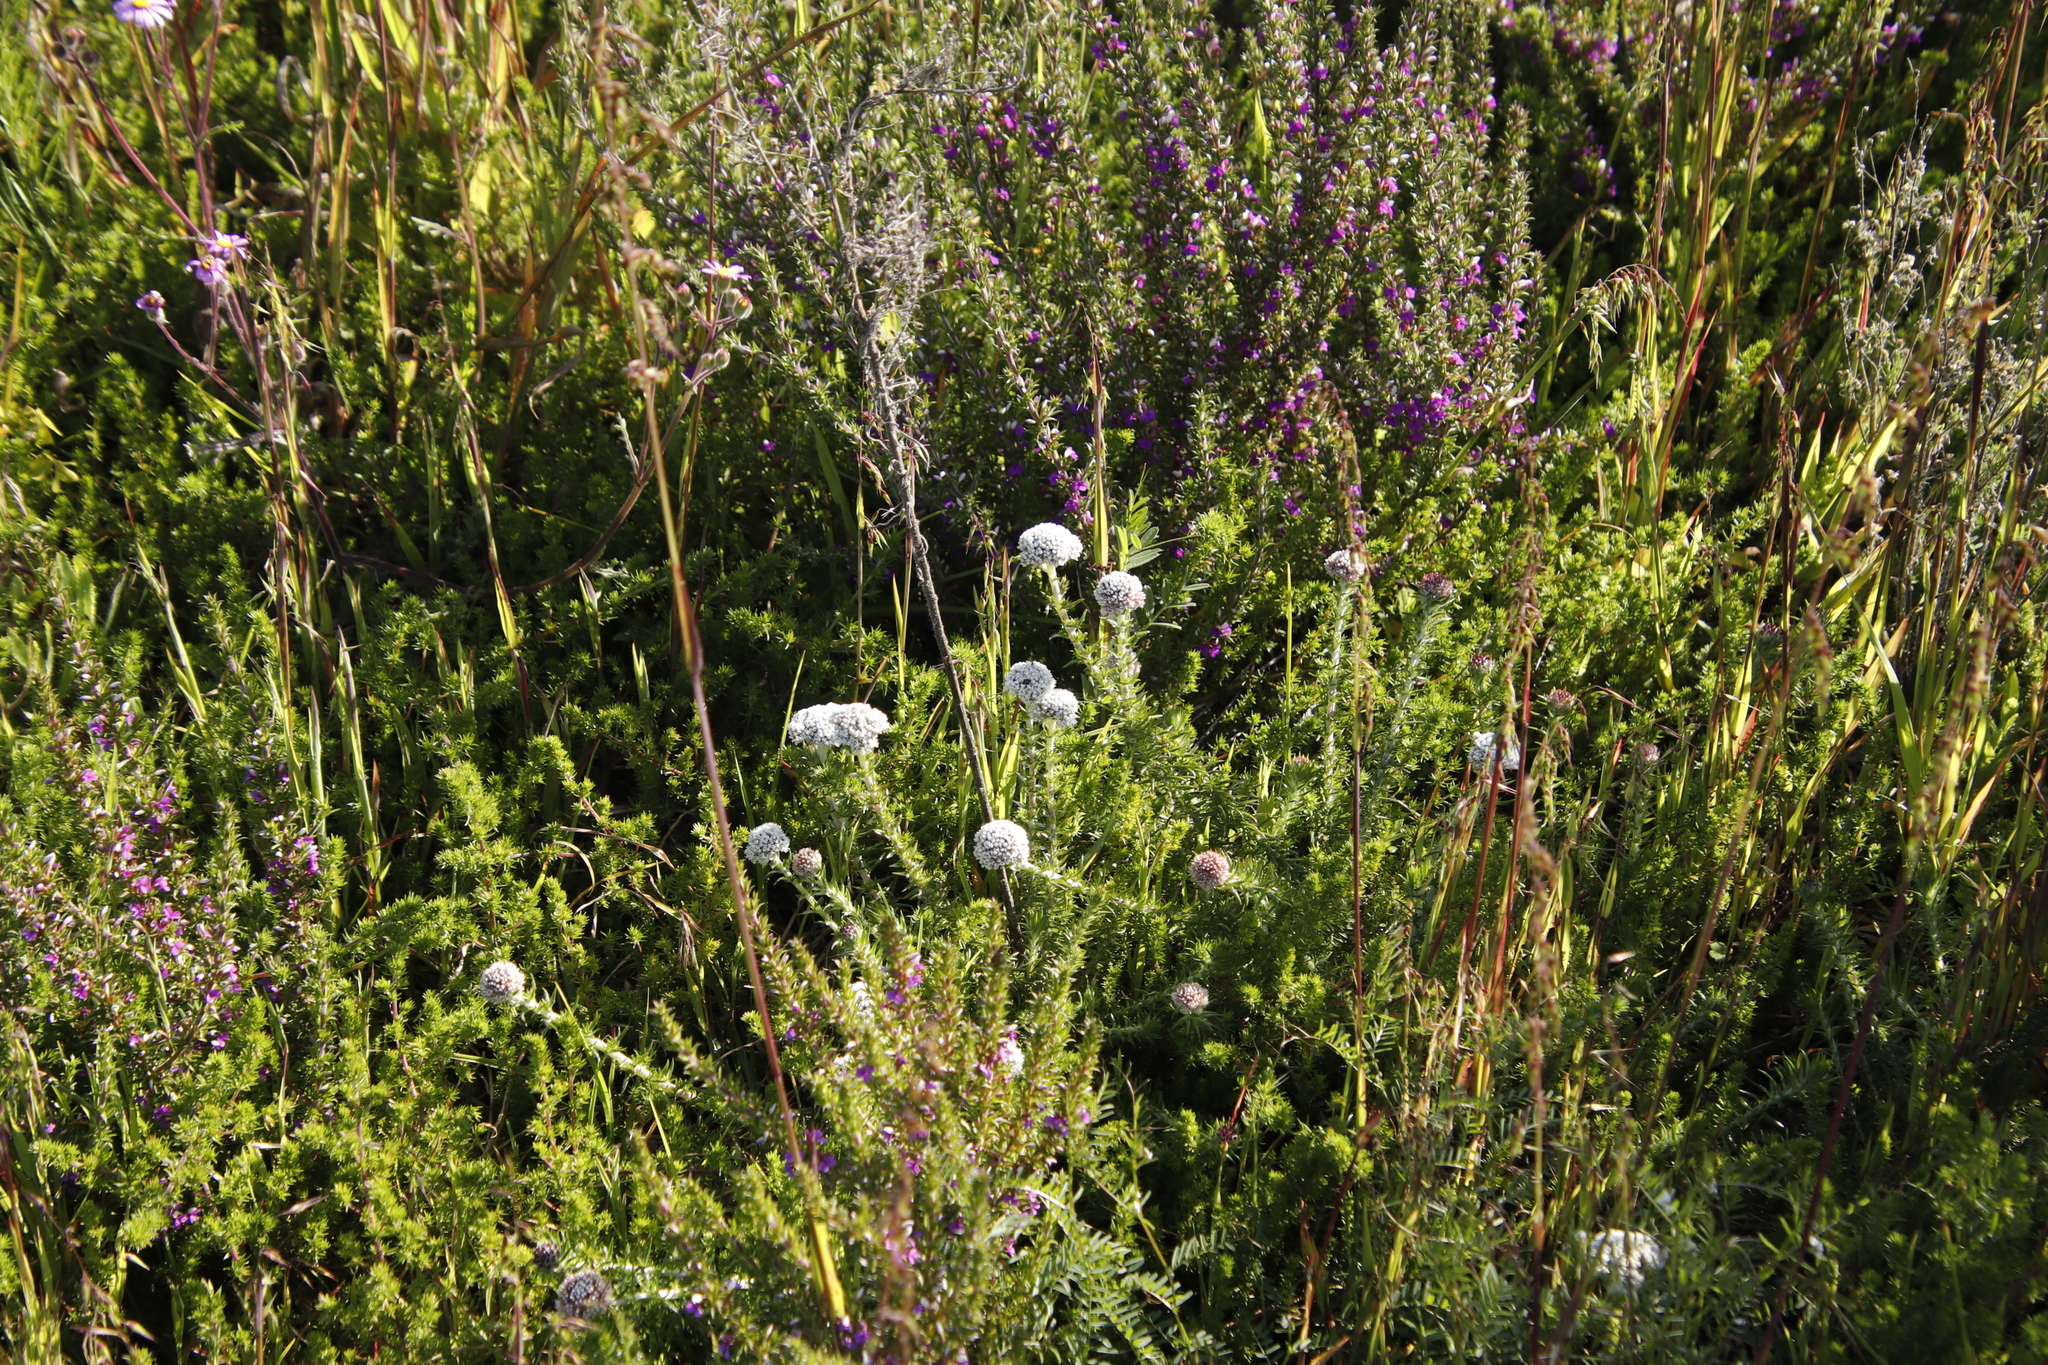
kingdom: Plantae
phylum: Tracheophyta
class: Magnoliopsida
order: Asterales
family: Asteraceae
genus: Metalasia
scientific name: Metalasia pulchella
